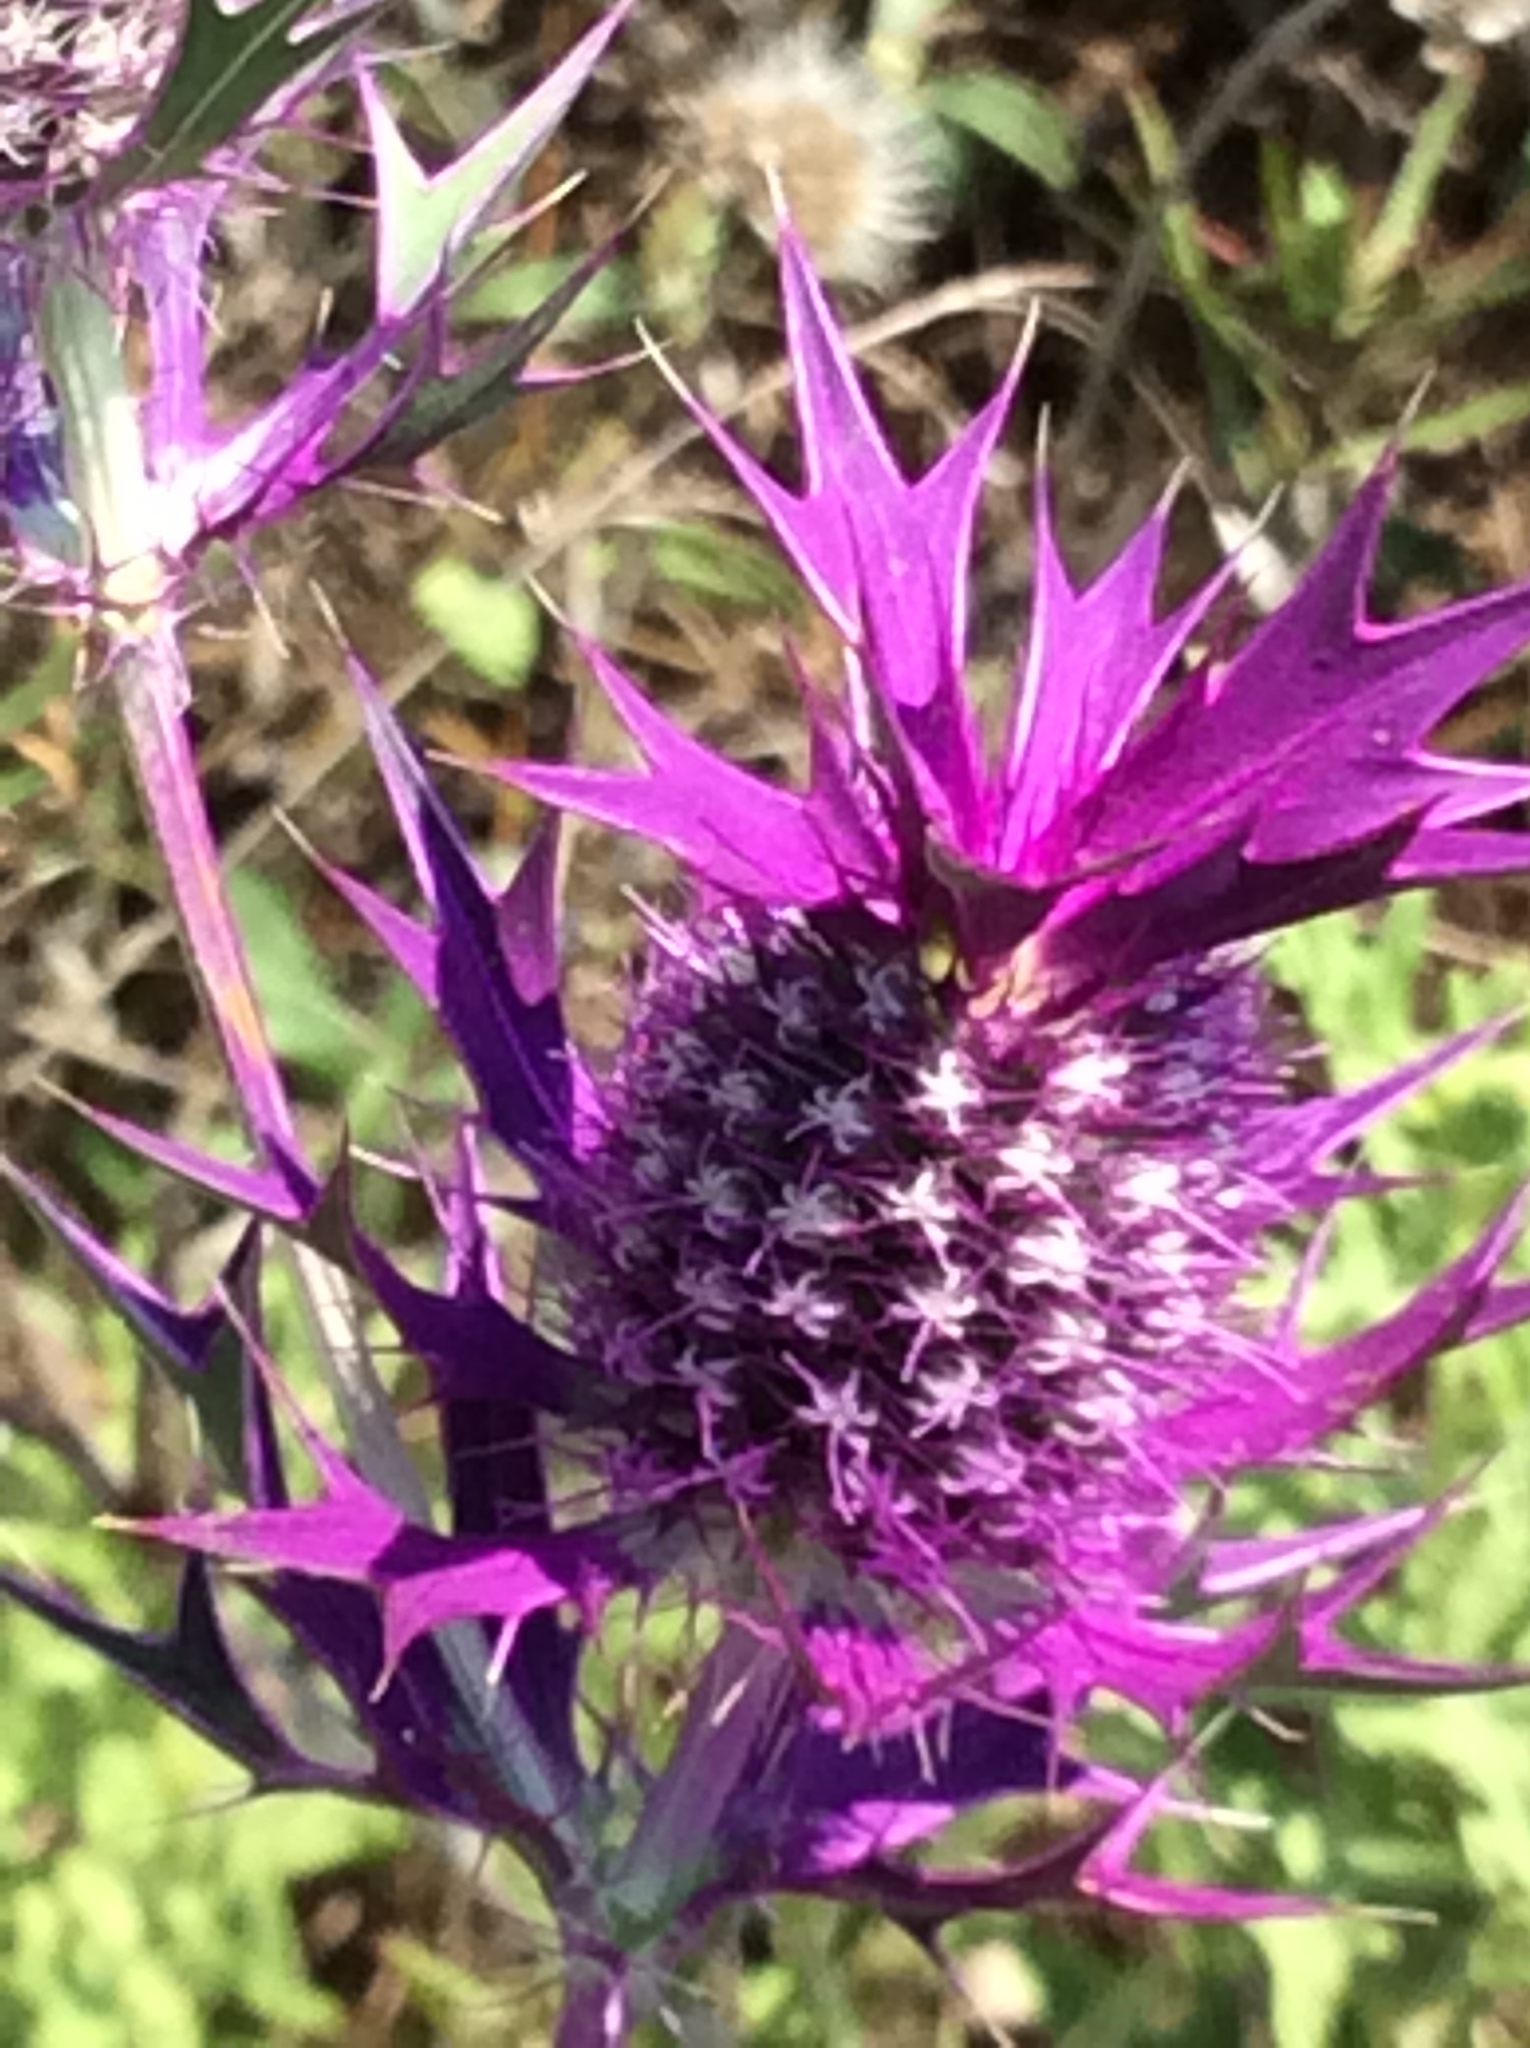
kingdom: Plantae
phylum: Tracheophyta
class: Magnoliopsida
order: Apiales
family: Apiaceae
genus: Eryngium
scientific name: Eryngium leavenworthii
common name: Leavenworth's eryngo
